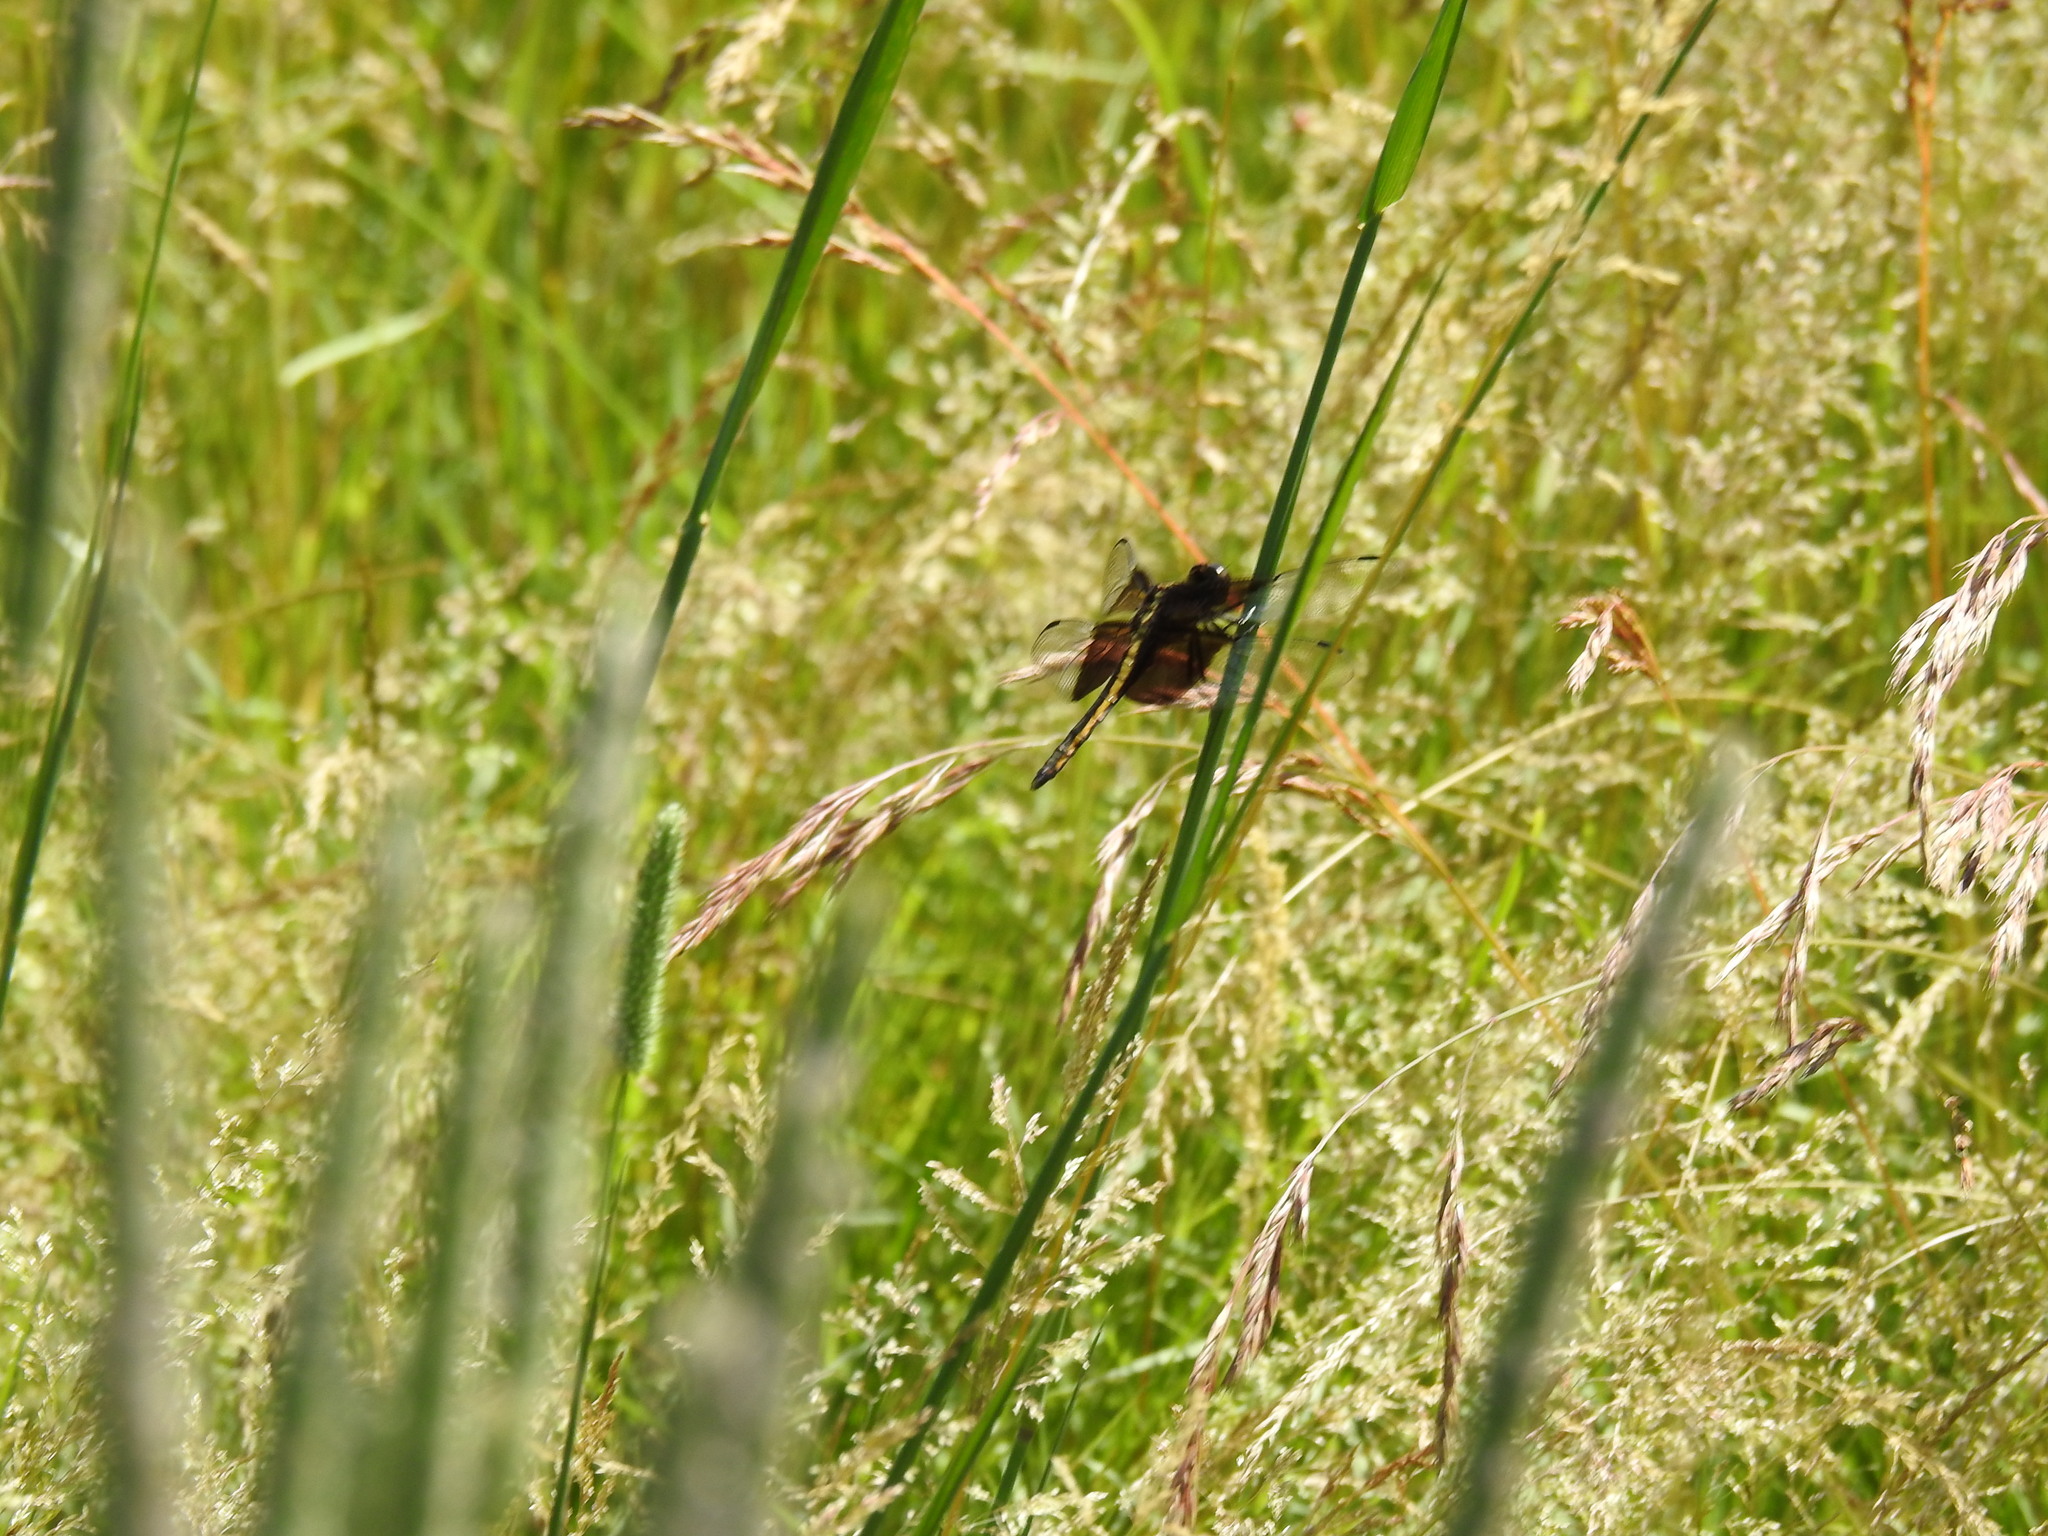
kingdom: Animalia
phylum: Arthropoda
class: Insecta
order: Odonata
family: Libellulidae
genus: Libellula
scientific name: Libellula luctuosa
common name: Widow skimmer
